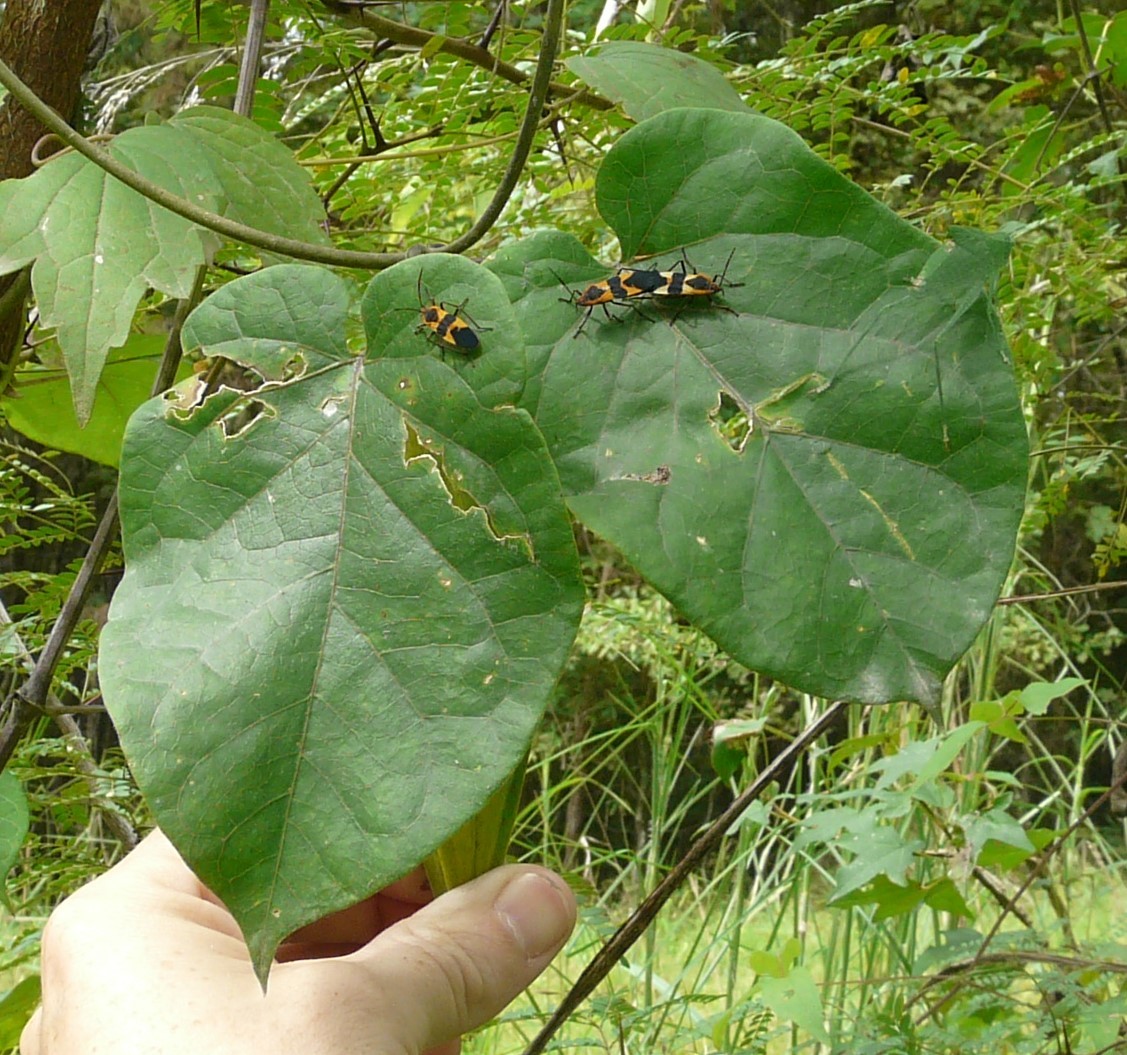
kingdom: Plantae
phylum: Tracheophyta
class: Magnoliopsida
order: Gentianales
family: Apocynaceae
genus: Gonolobus
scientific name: Gonolobus suberosus
